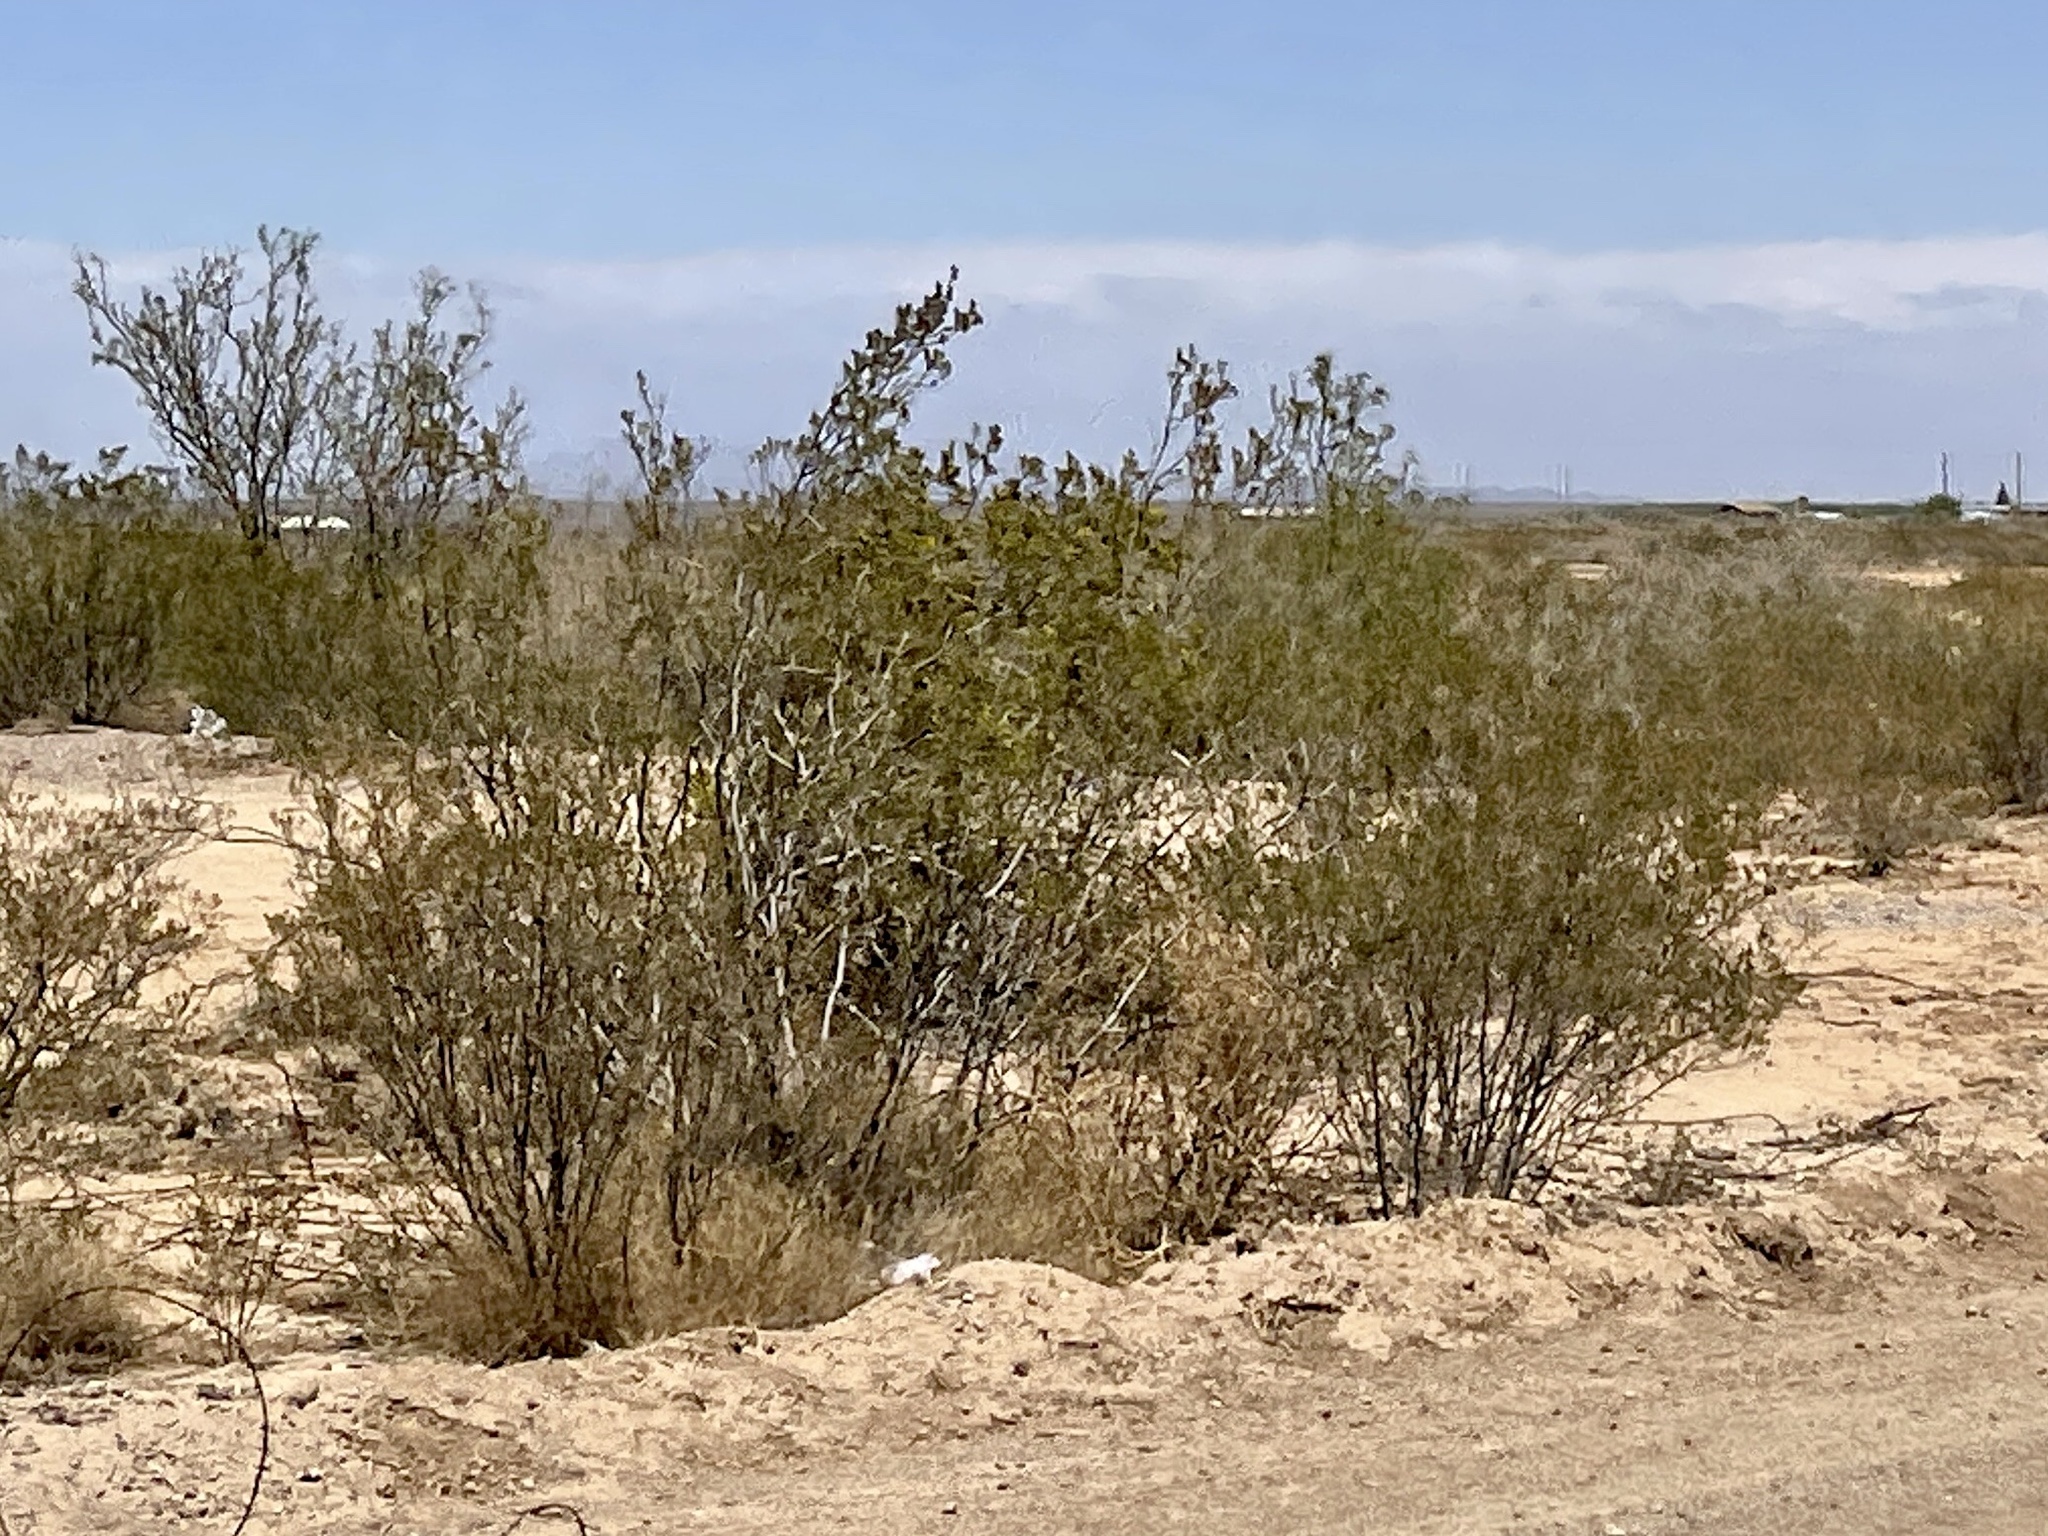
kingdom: Plantae
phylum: Tracheophyta
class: Magnoliopsida
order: Zygophyllales
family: Zygophyllaceae
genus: Larrea
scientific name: Larrea tridentata
